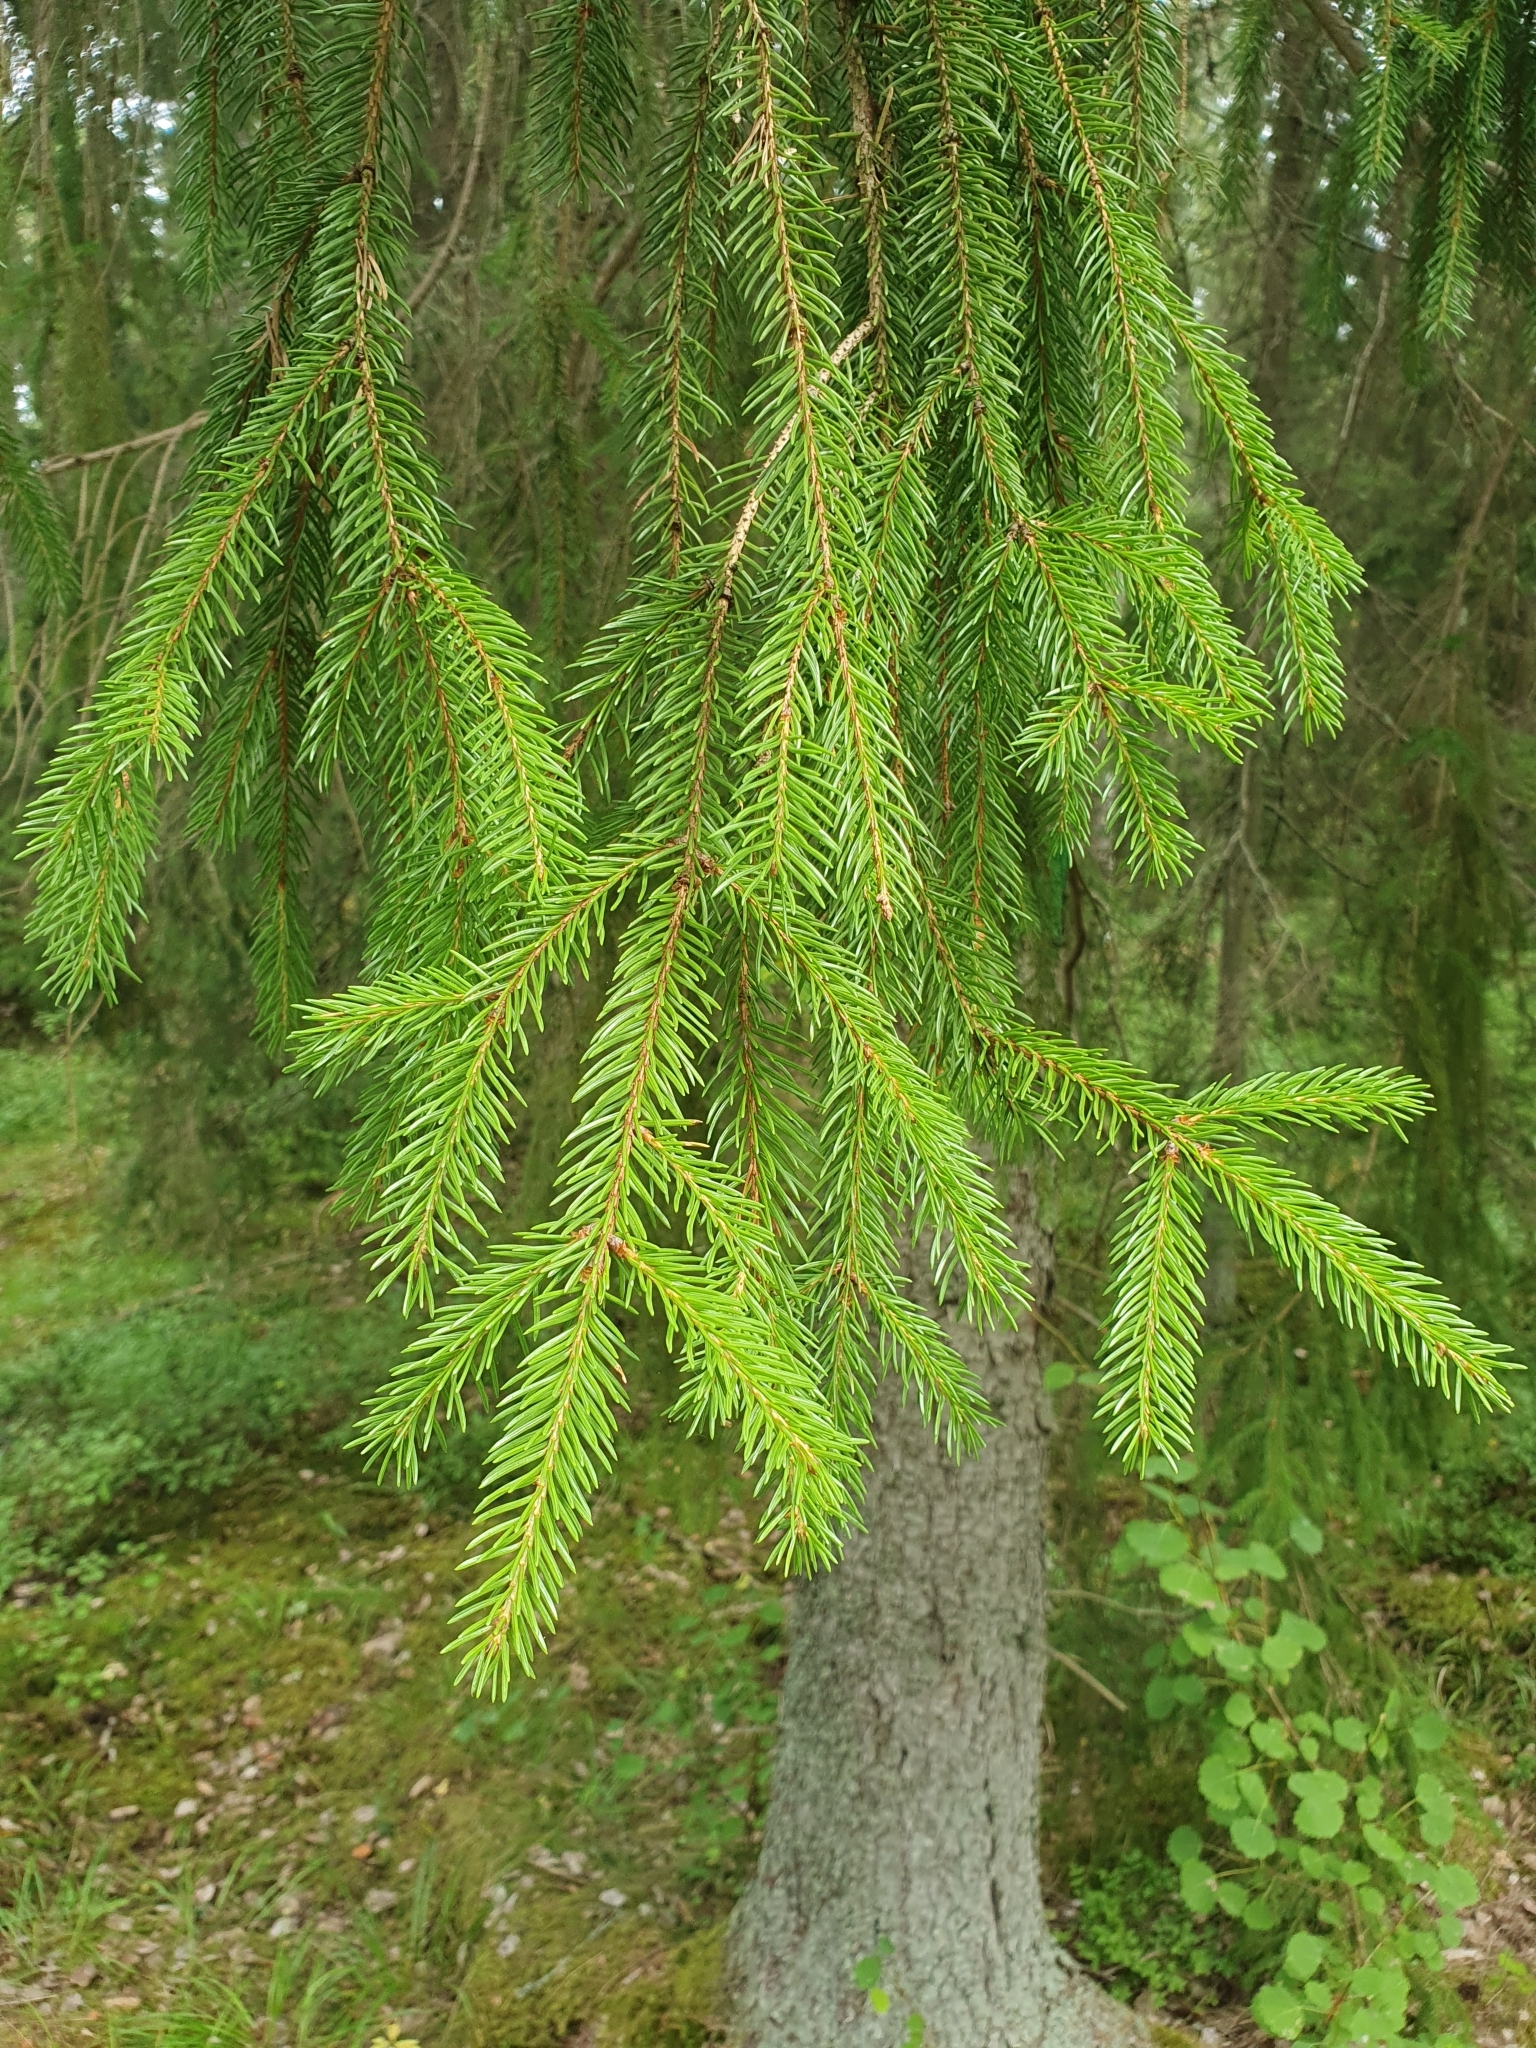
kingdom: Plantae
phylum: Tracheophyta
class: Pinopsida
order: Pinales
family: Pinaceae
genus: Picea
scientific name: Picea abies
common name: Norway spruce
